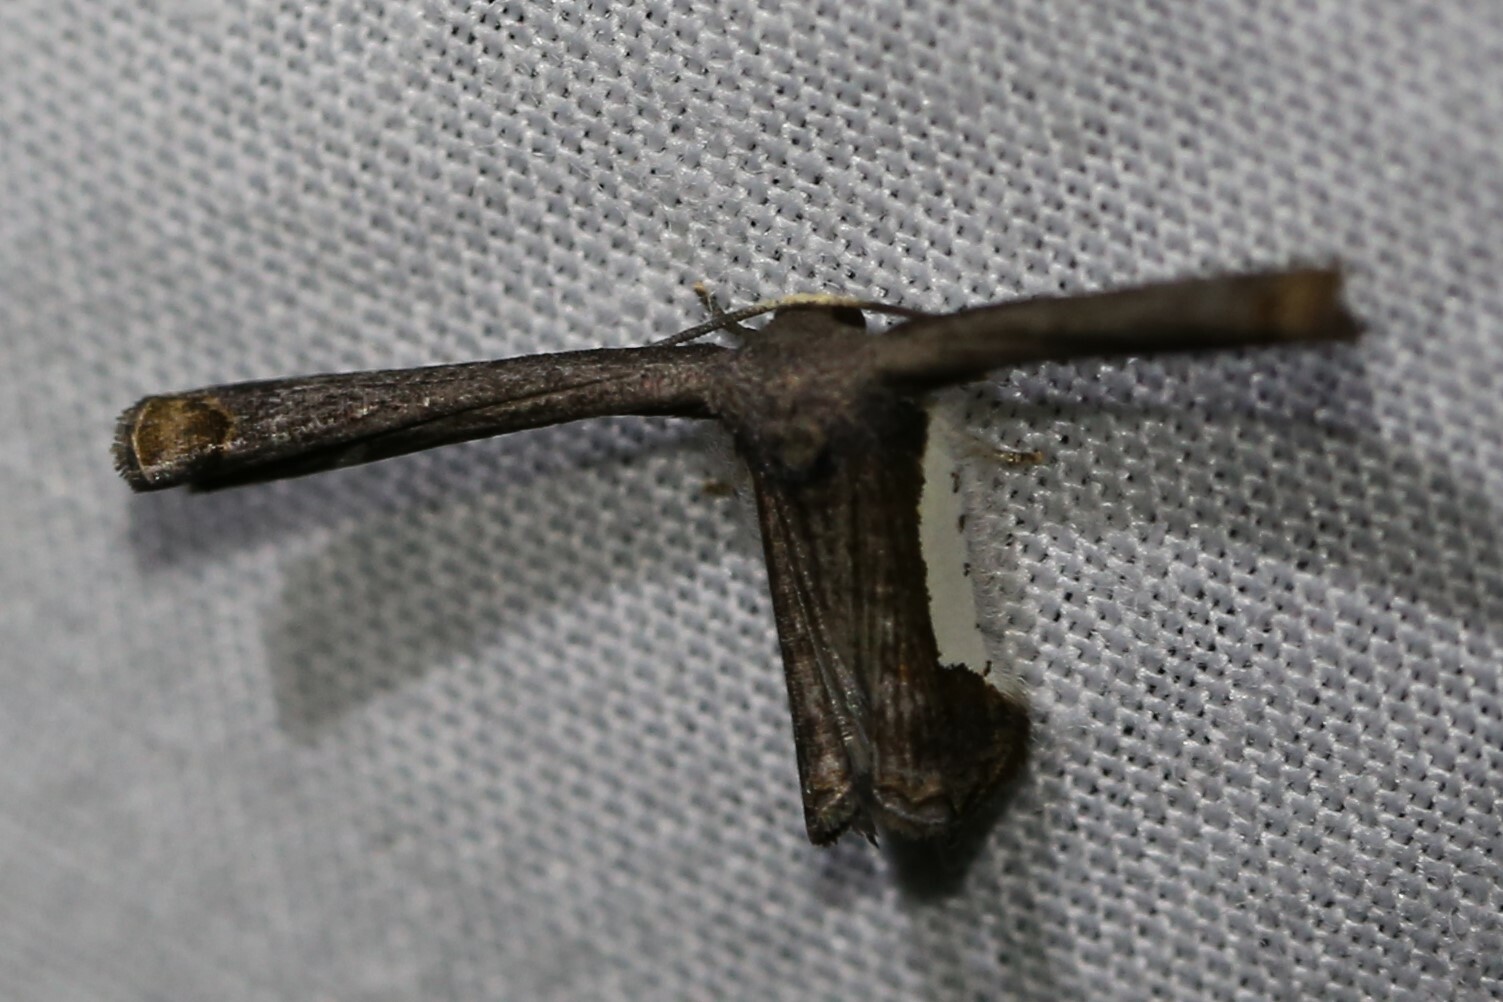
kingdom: Animalia
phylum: Arthropoda
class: Insecta
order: Lepidoptera
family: Uraniidae
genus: Phazaca
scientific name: Phazaca decorata
